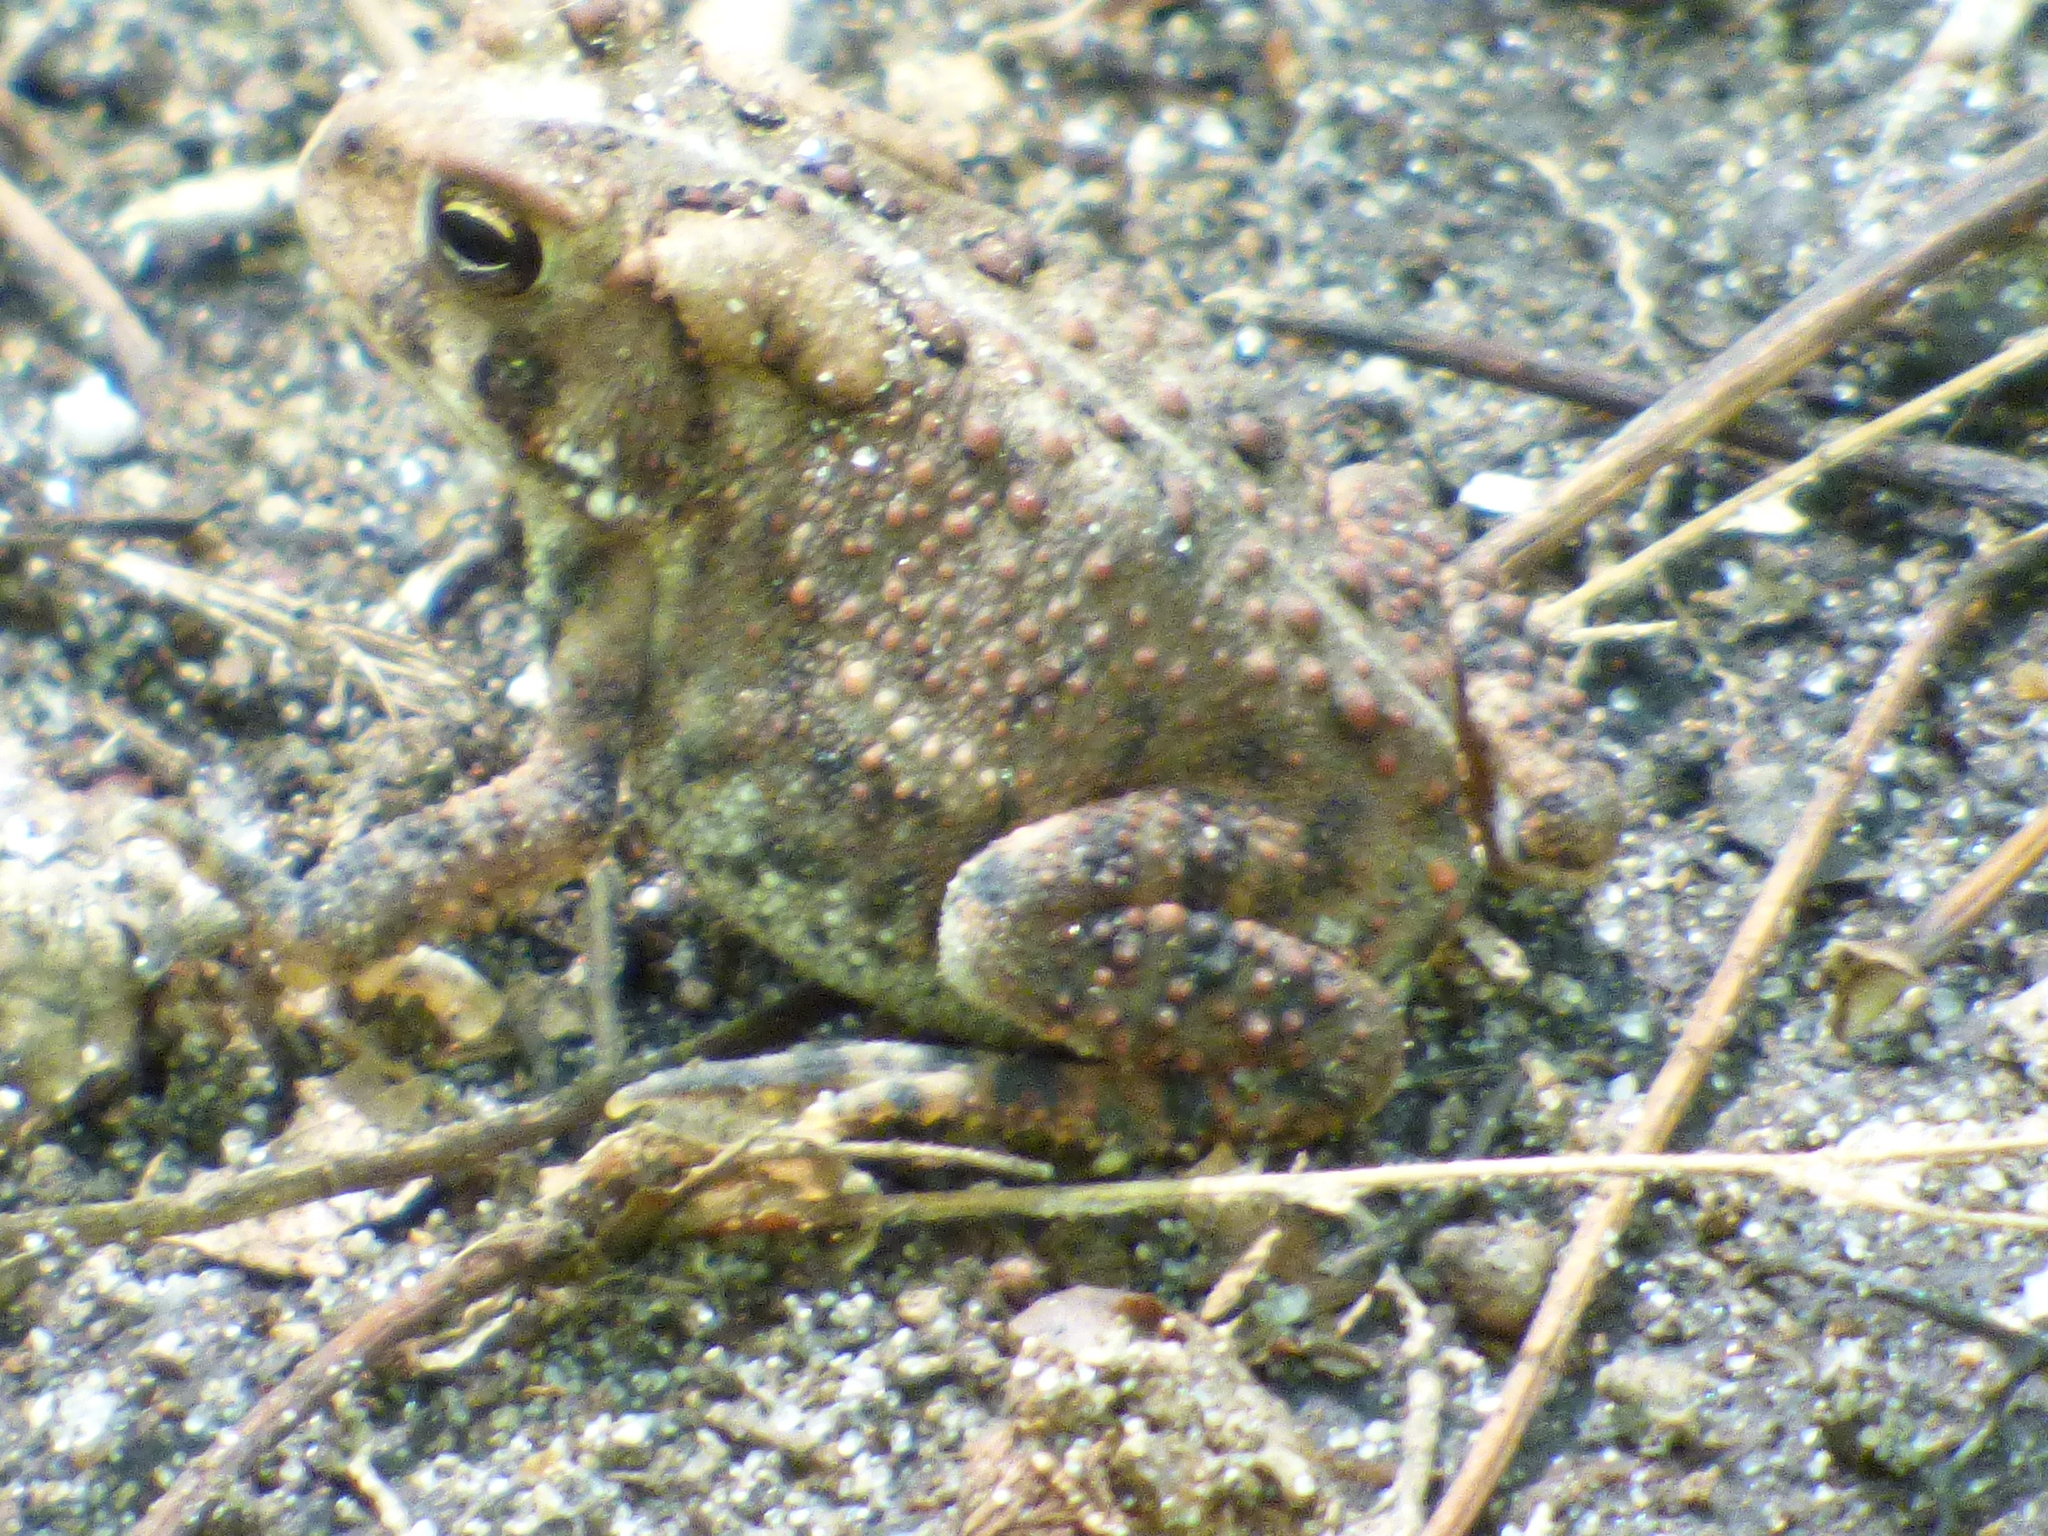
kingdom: Animalia
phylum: Chordata
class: Amphibia
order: Anura
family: Bufonidae
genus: Anaxyrus
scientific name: Anaxyrus americanus
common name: American toad
